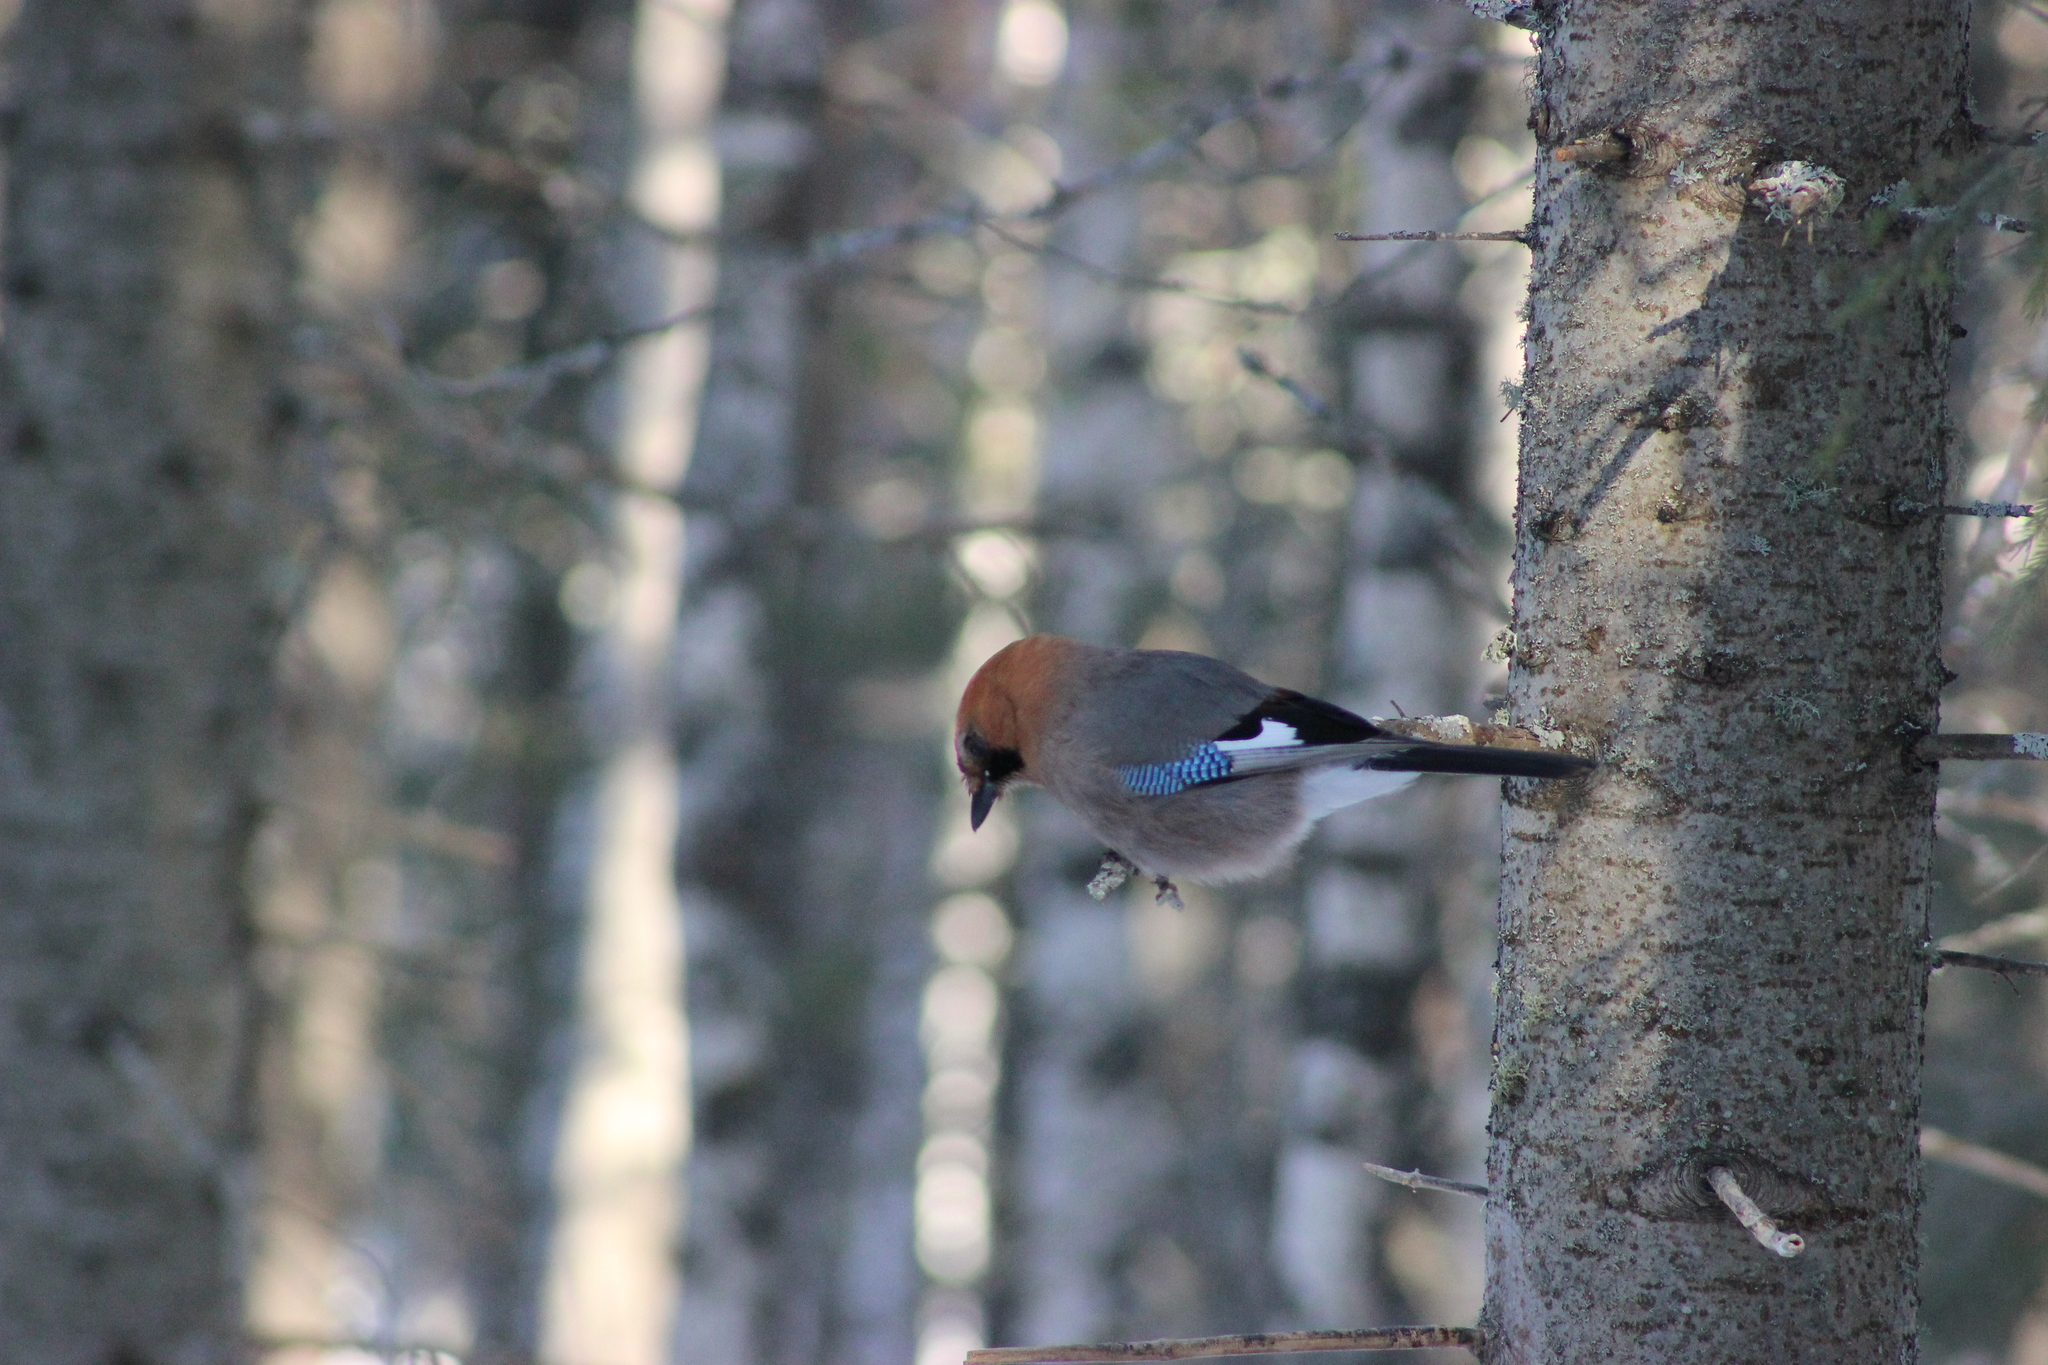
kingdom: Animalia
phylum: Chordata
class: Aves
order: Passeriformes
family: Corvidae
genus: Garrulus
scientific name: Garrulus glandarius
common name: Eurasian jay
